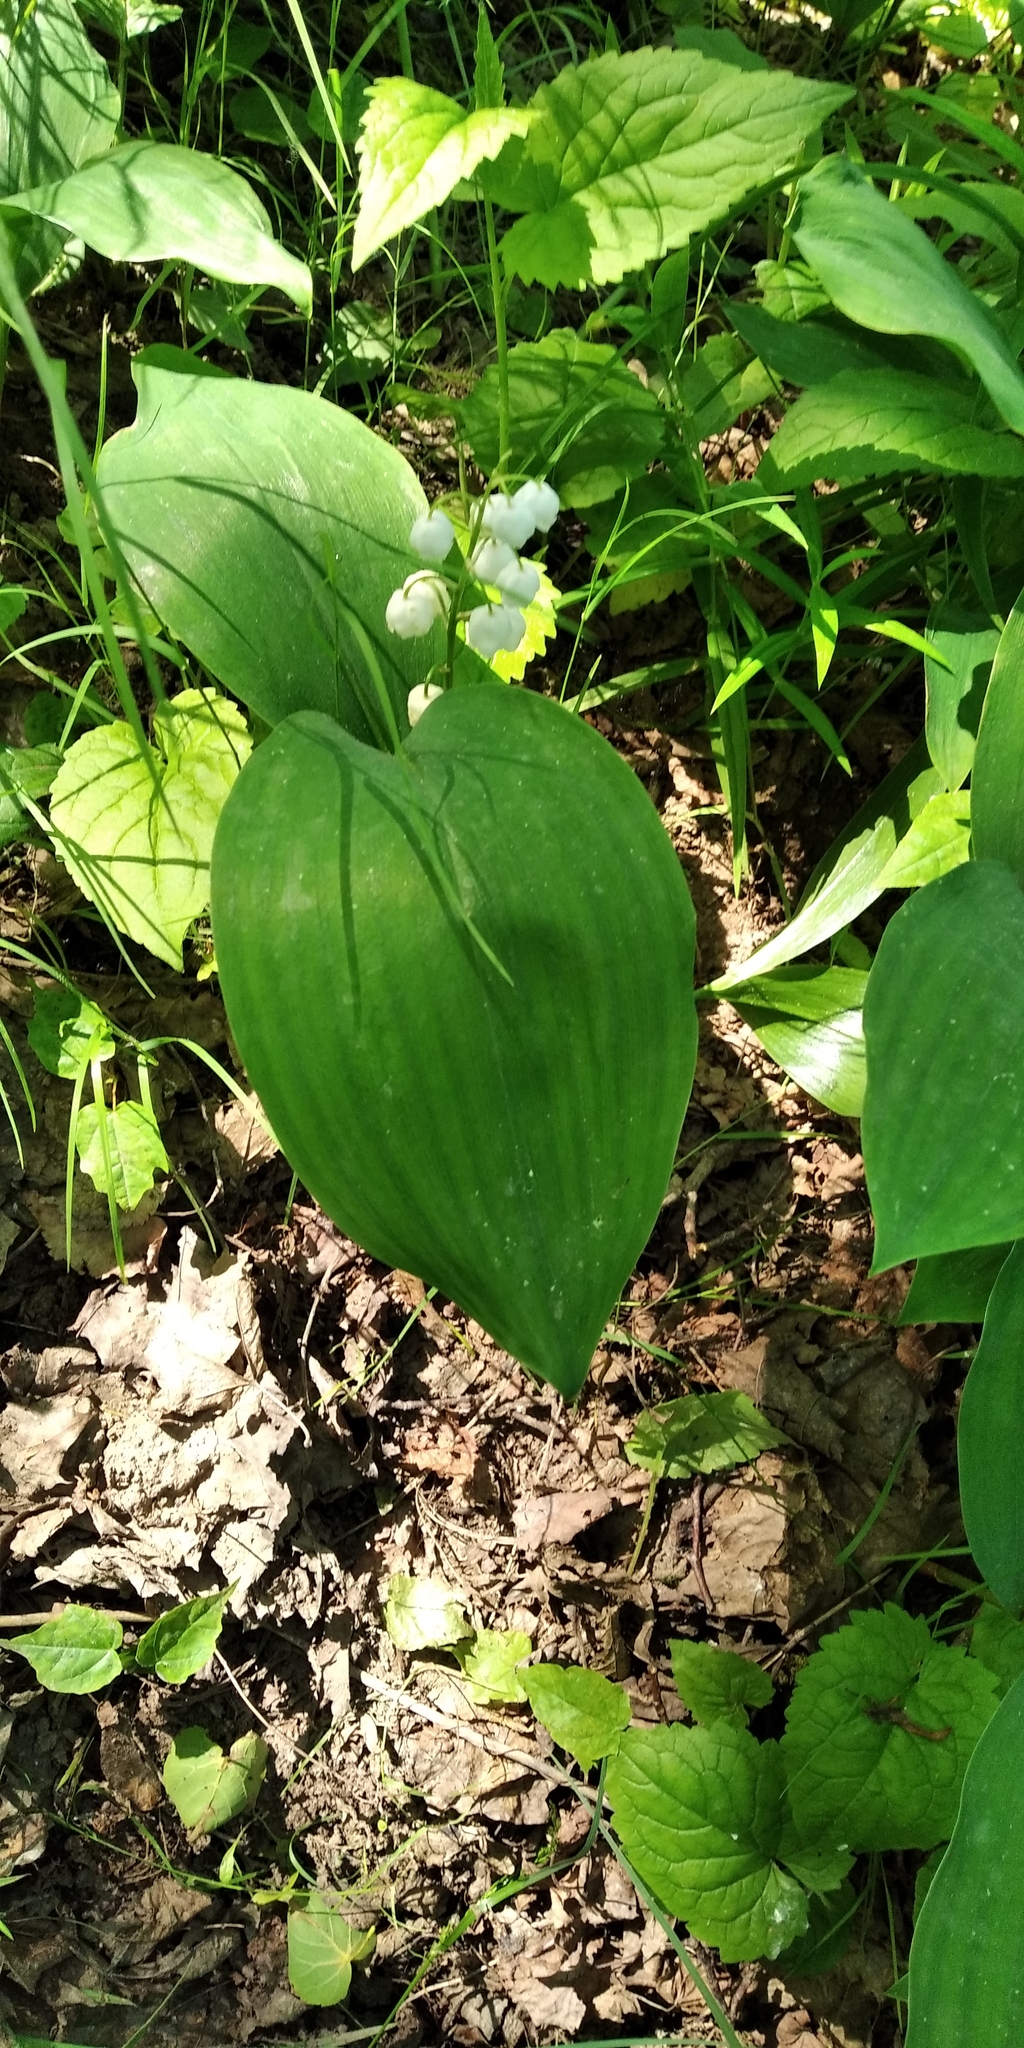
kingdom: Plantae
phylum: Tracheophyta
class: Liliopsida
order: Asparagales
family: Asparagaceae
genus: Convallaria
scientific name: Convallaria majalis
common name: Lily-of-the-valley
